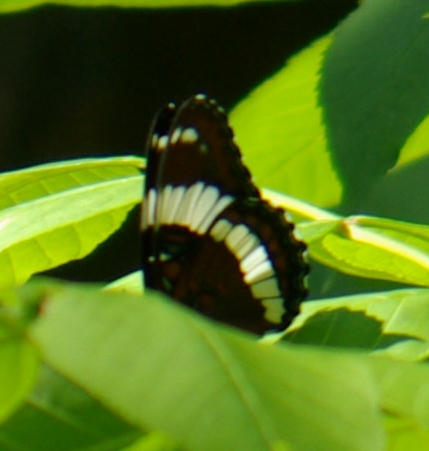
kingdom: Animalia
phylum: Arthropoda
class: Insecta
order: Lepidoptera
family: Nymphalidae
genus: Limenitis
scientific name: Limenitis arthemis
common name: Red-spotted admiral
